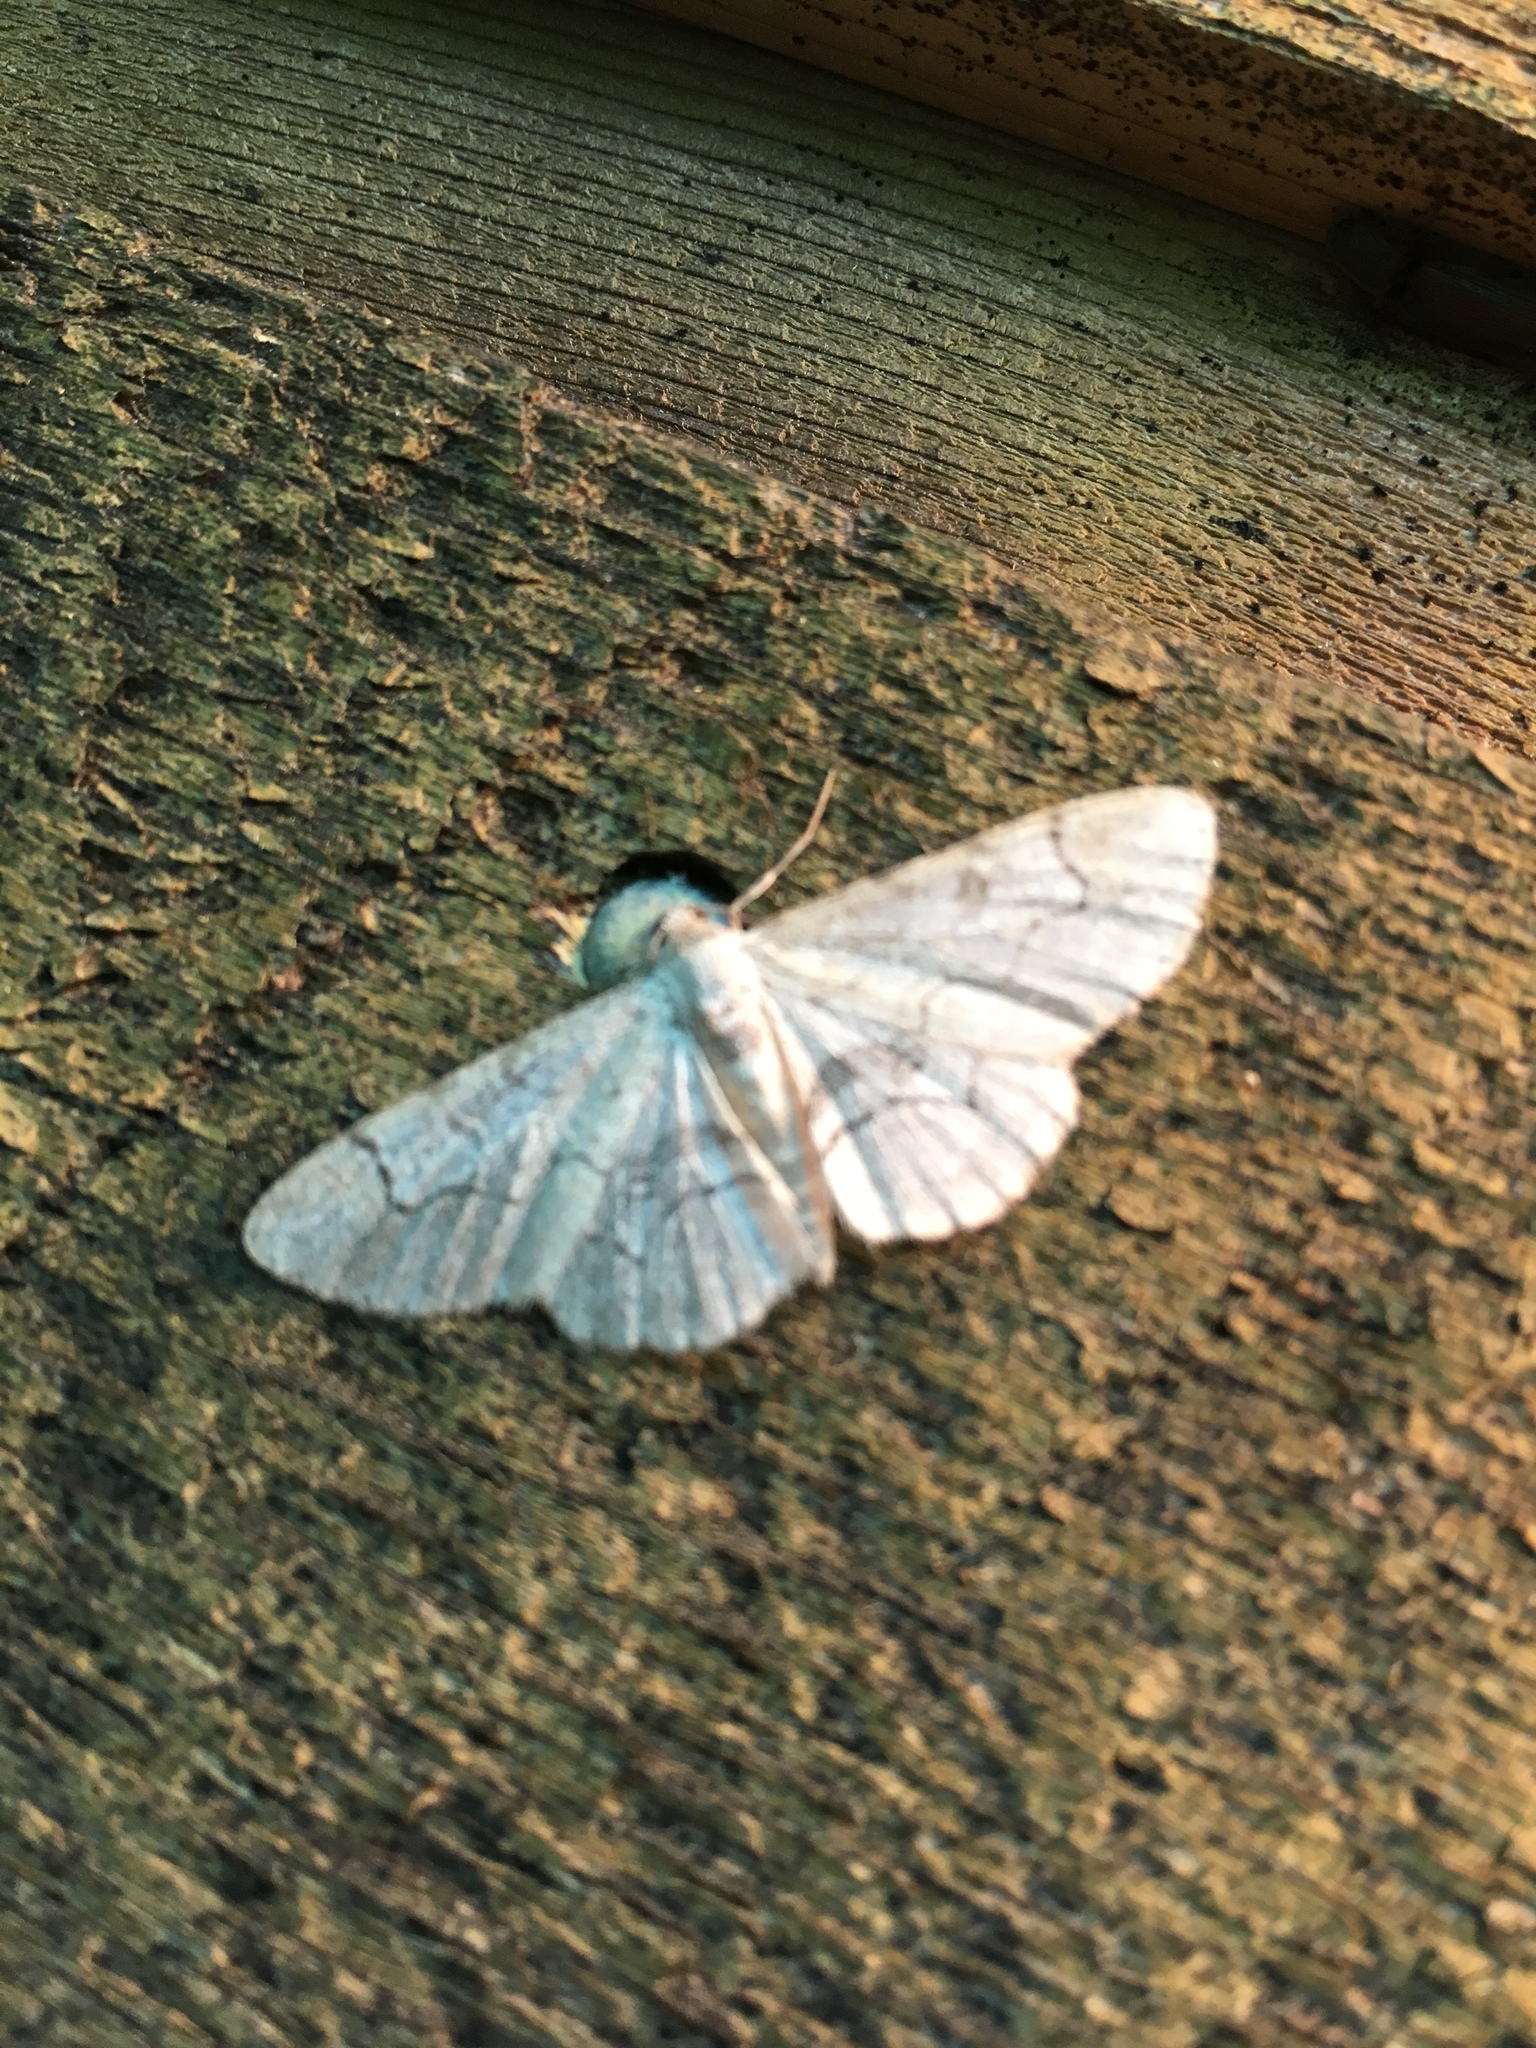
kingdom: Animalia
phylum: Arthropoda
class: Insecta
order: Lepidoptera
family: Geometridae
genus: Iridopsis
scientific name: Iridopsis larvaria
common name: Bent-line gray
